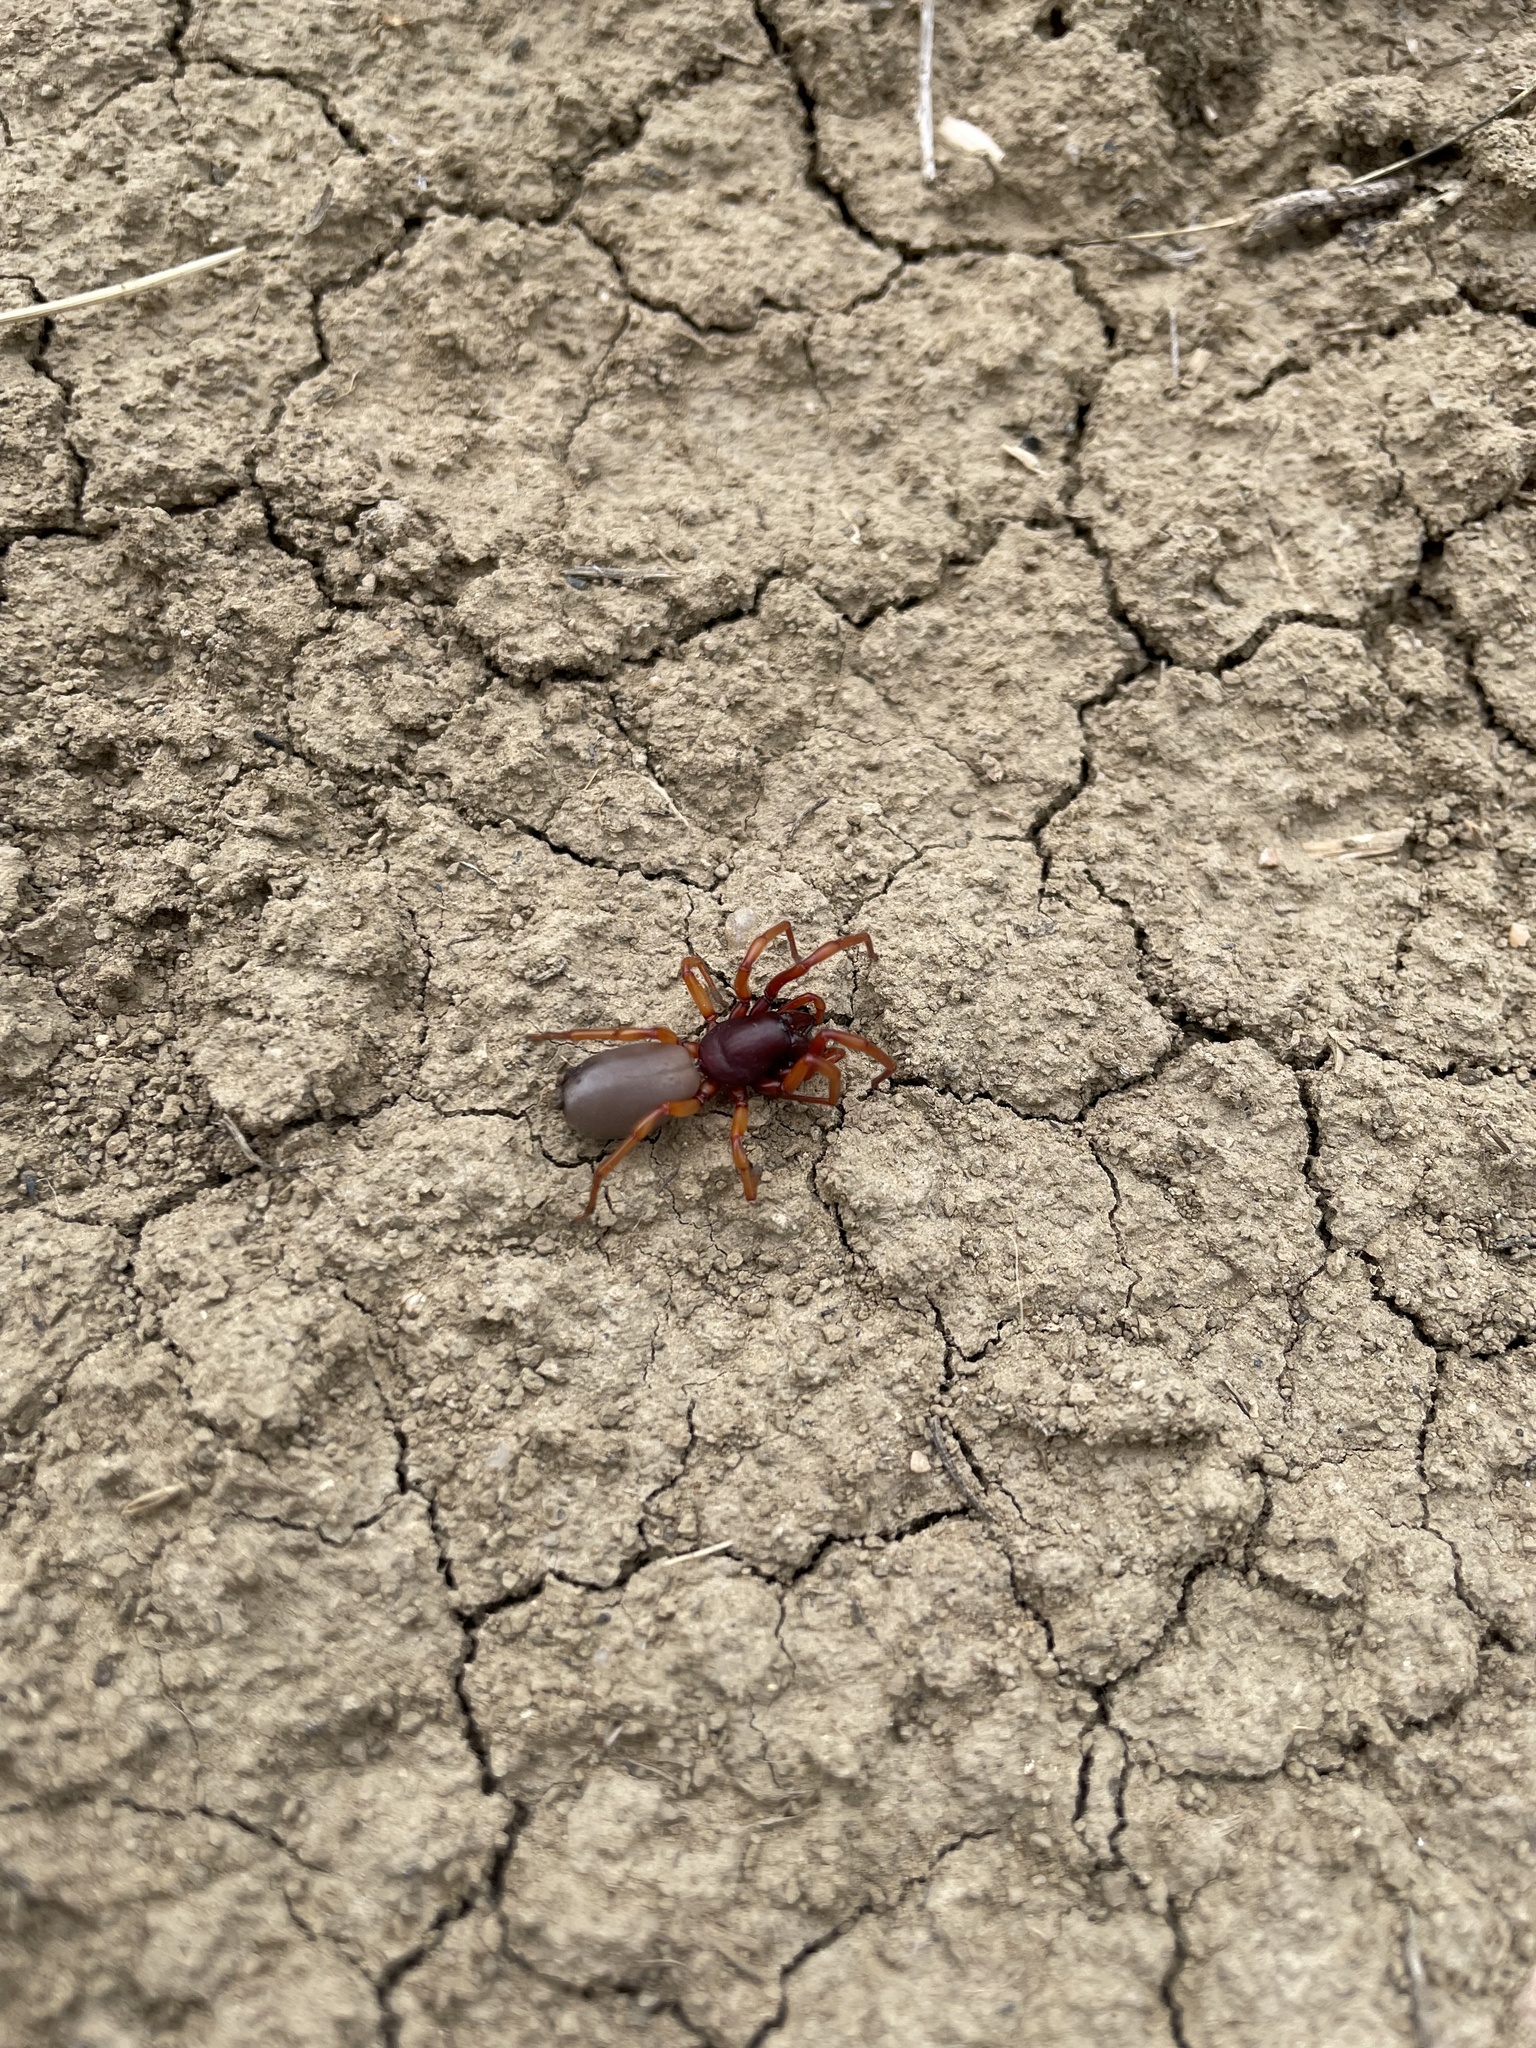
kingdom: Animalia
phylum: Arthropoda
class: Arachnida
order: Araneae
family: Dysderidae
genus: Dysdera
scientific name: Dysdera crocata
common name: Woodlouse spider
